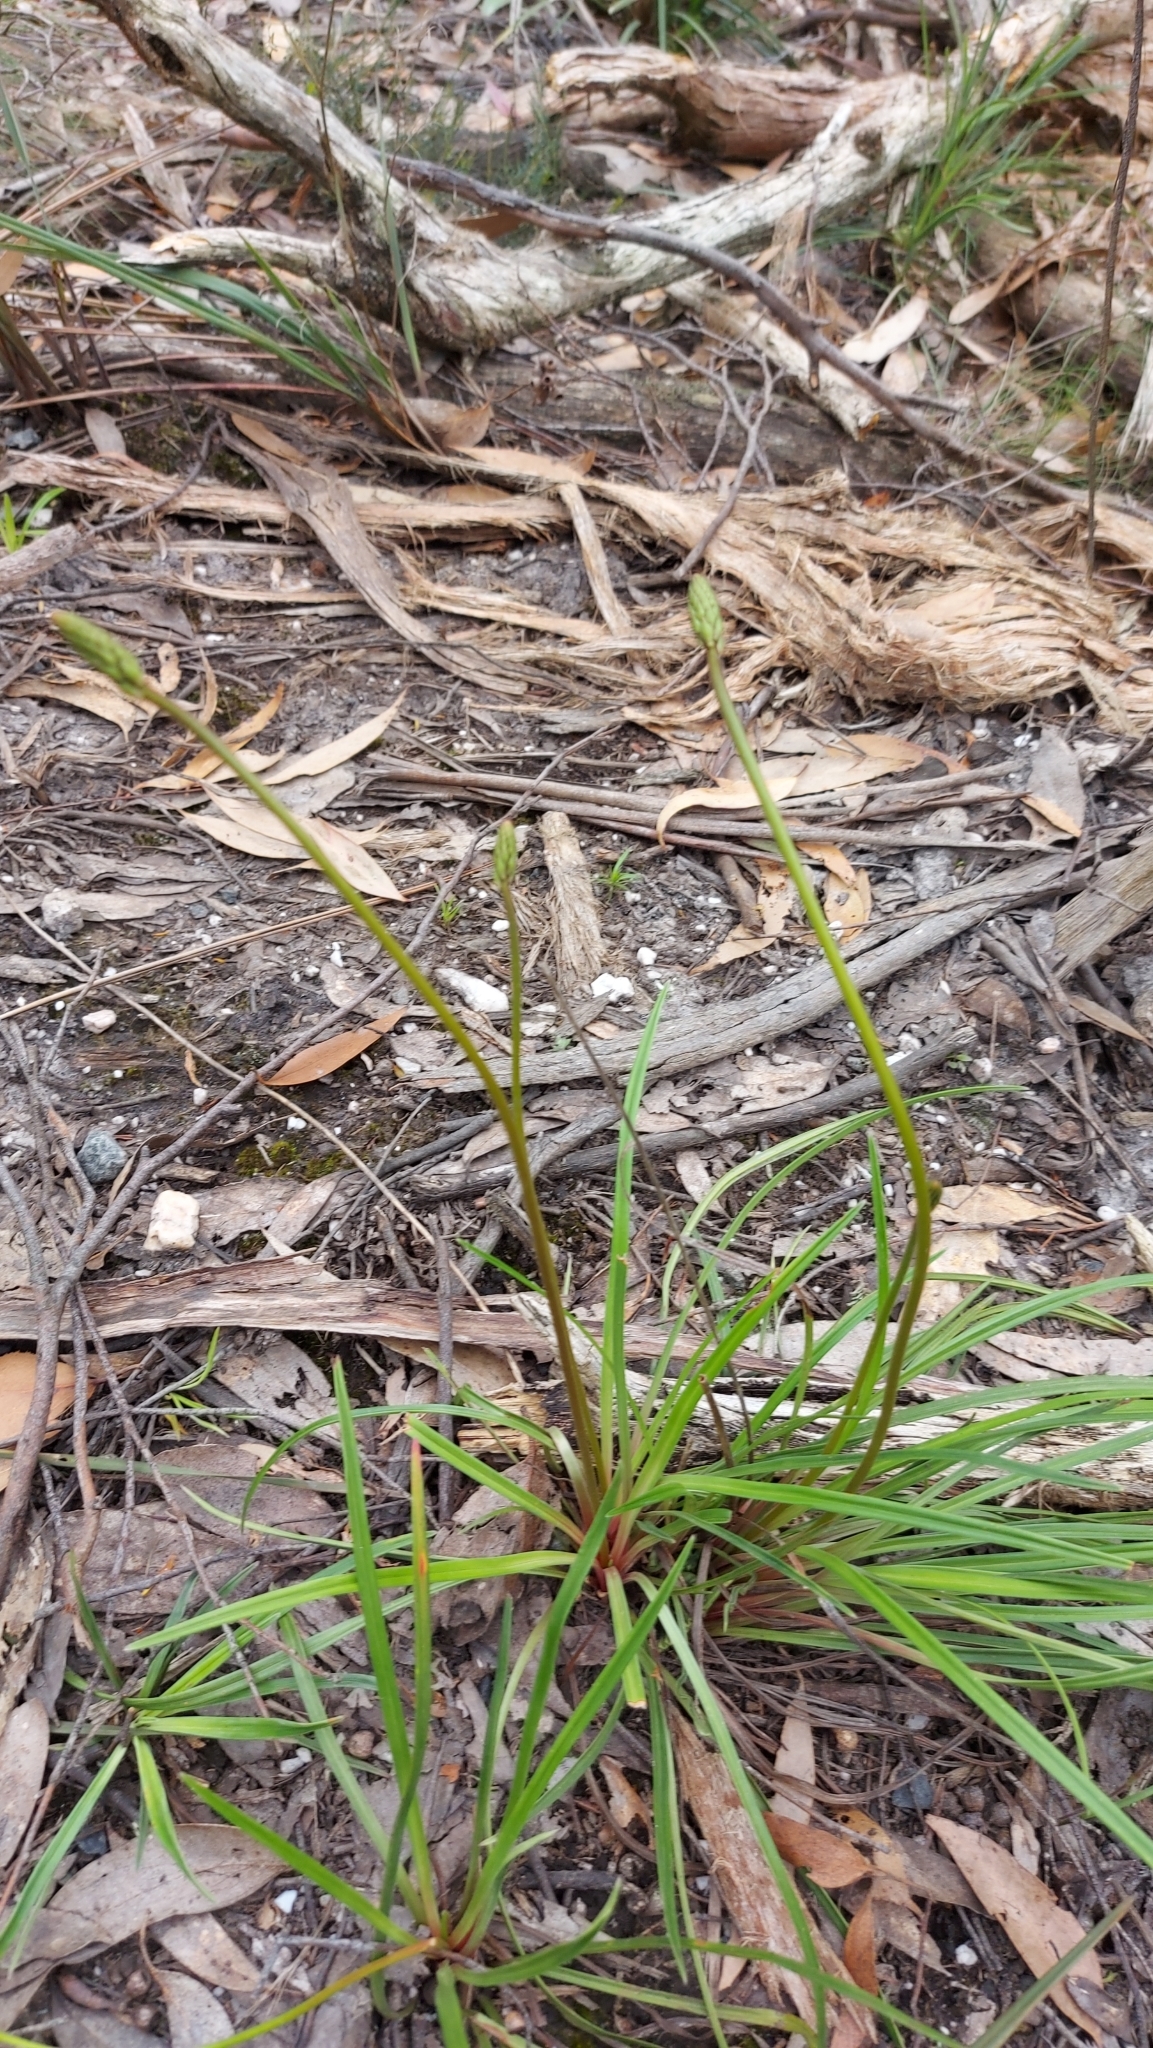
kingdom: Plantae
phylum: Tracheophyta
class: Magnoliopsida
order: Asterales
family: Stylidiaceae
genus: Stylidium
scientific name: Stylidium graminifolium
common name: Grass triggerplant
